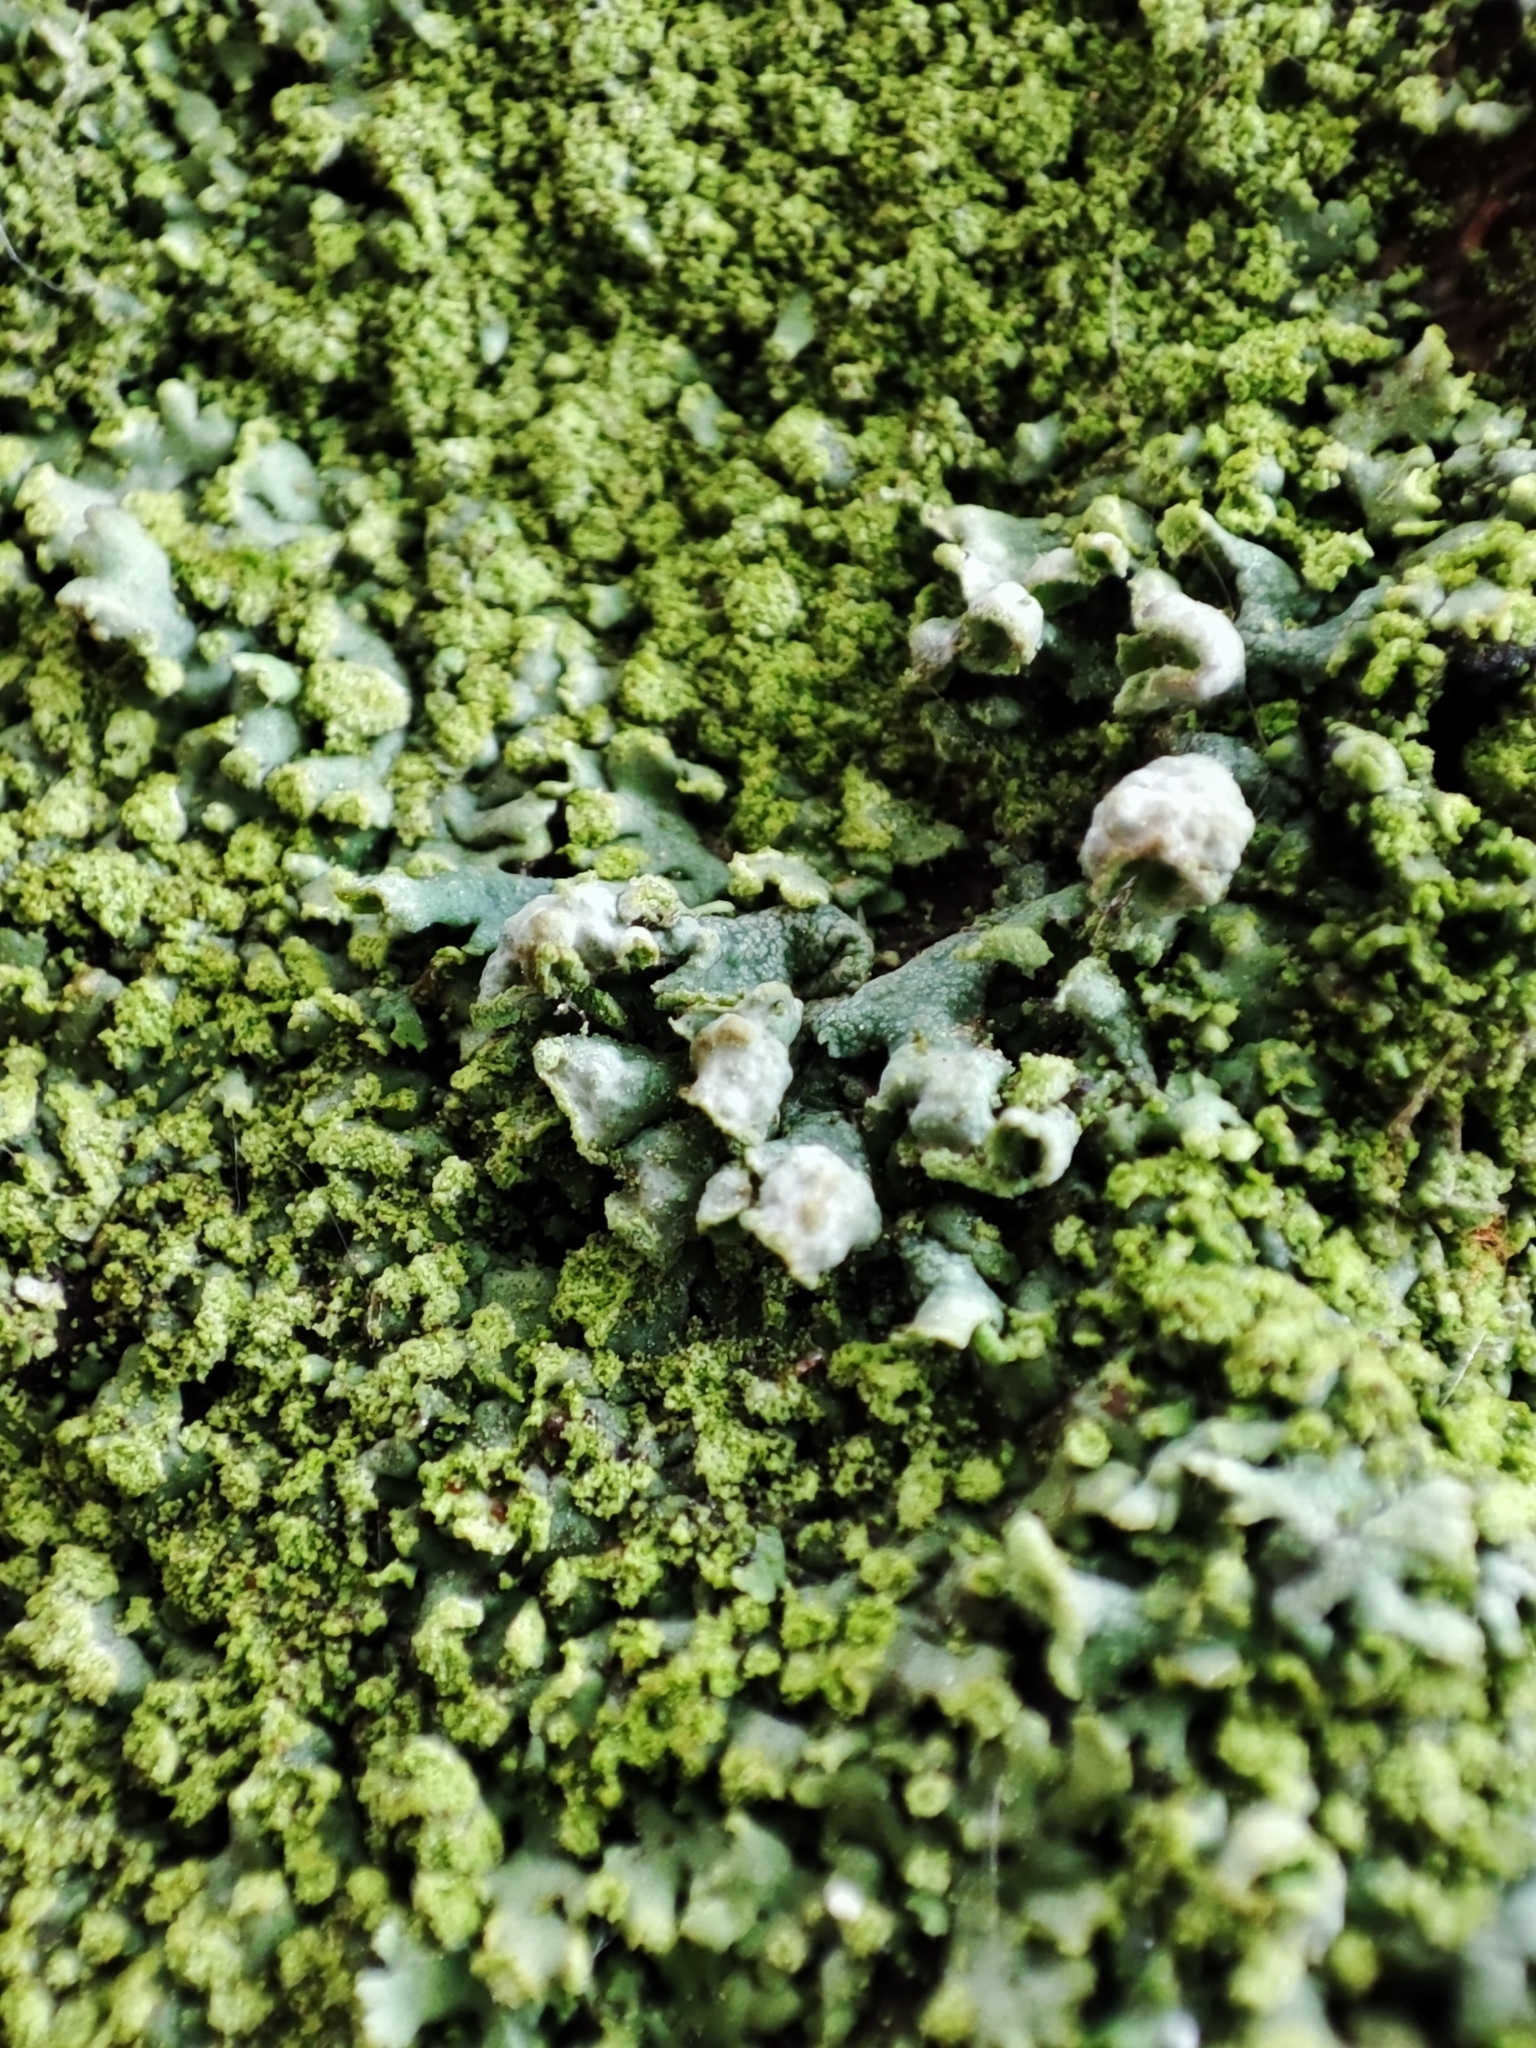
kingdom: Fungi
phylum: Ascomycota
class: Lecanoromycetes
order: Caliciales
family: Physciaceae
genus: Physcia
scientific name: Physcia adscendens
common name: Hooded rosette lichen
